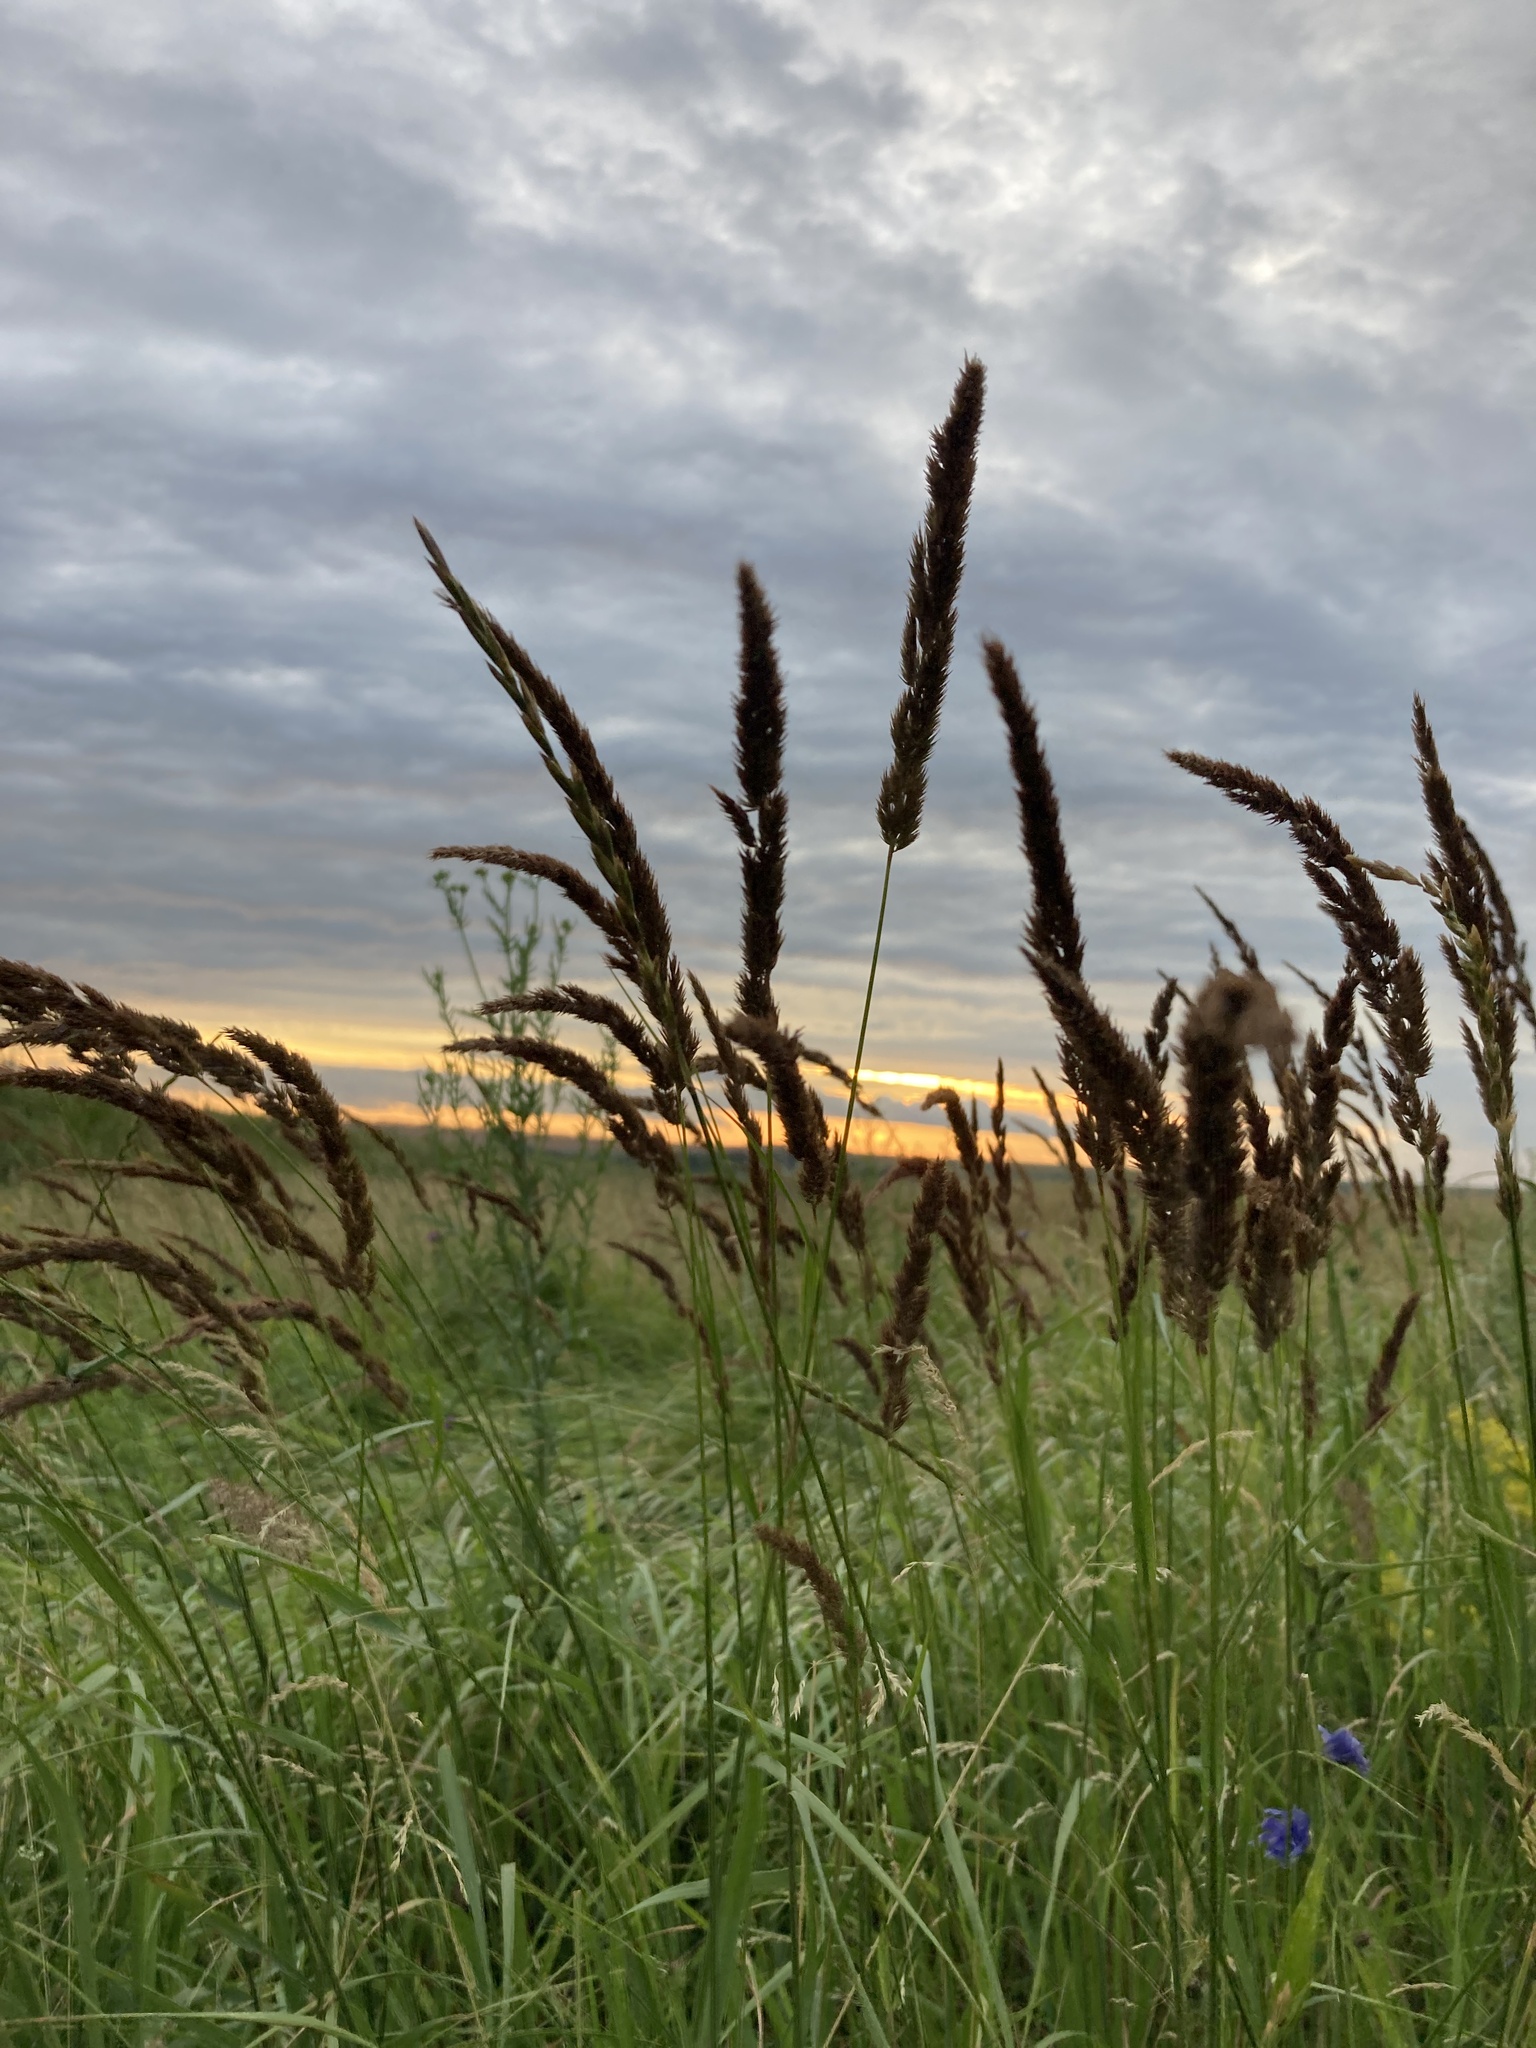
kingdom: Plantae
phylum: Tracheophyta
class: Liliopsida
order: Poales
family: Poaceae
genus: Calamagrostis
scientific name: Calamagrostis epigejos
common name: Wood small-reed
